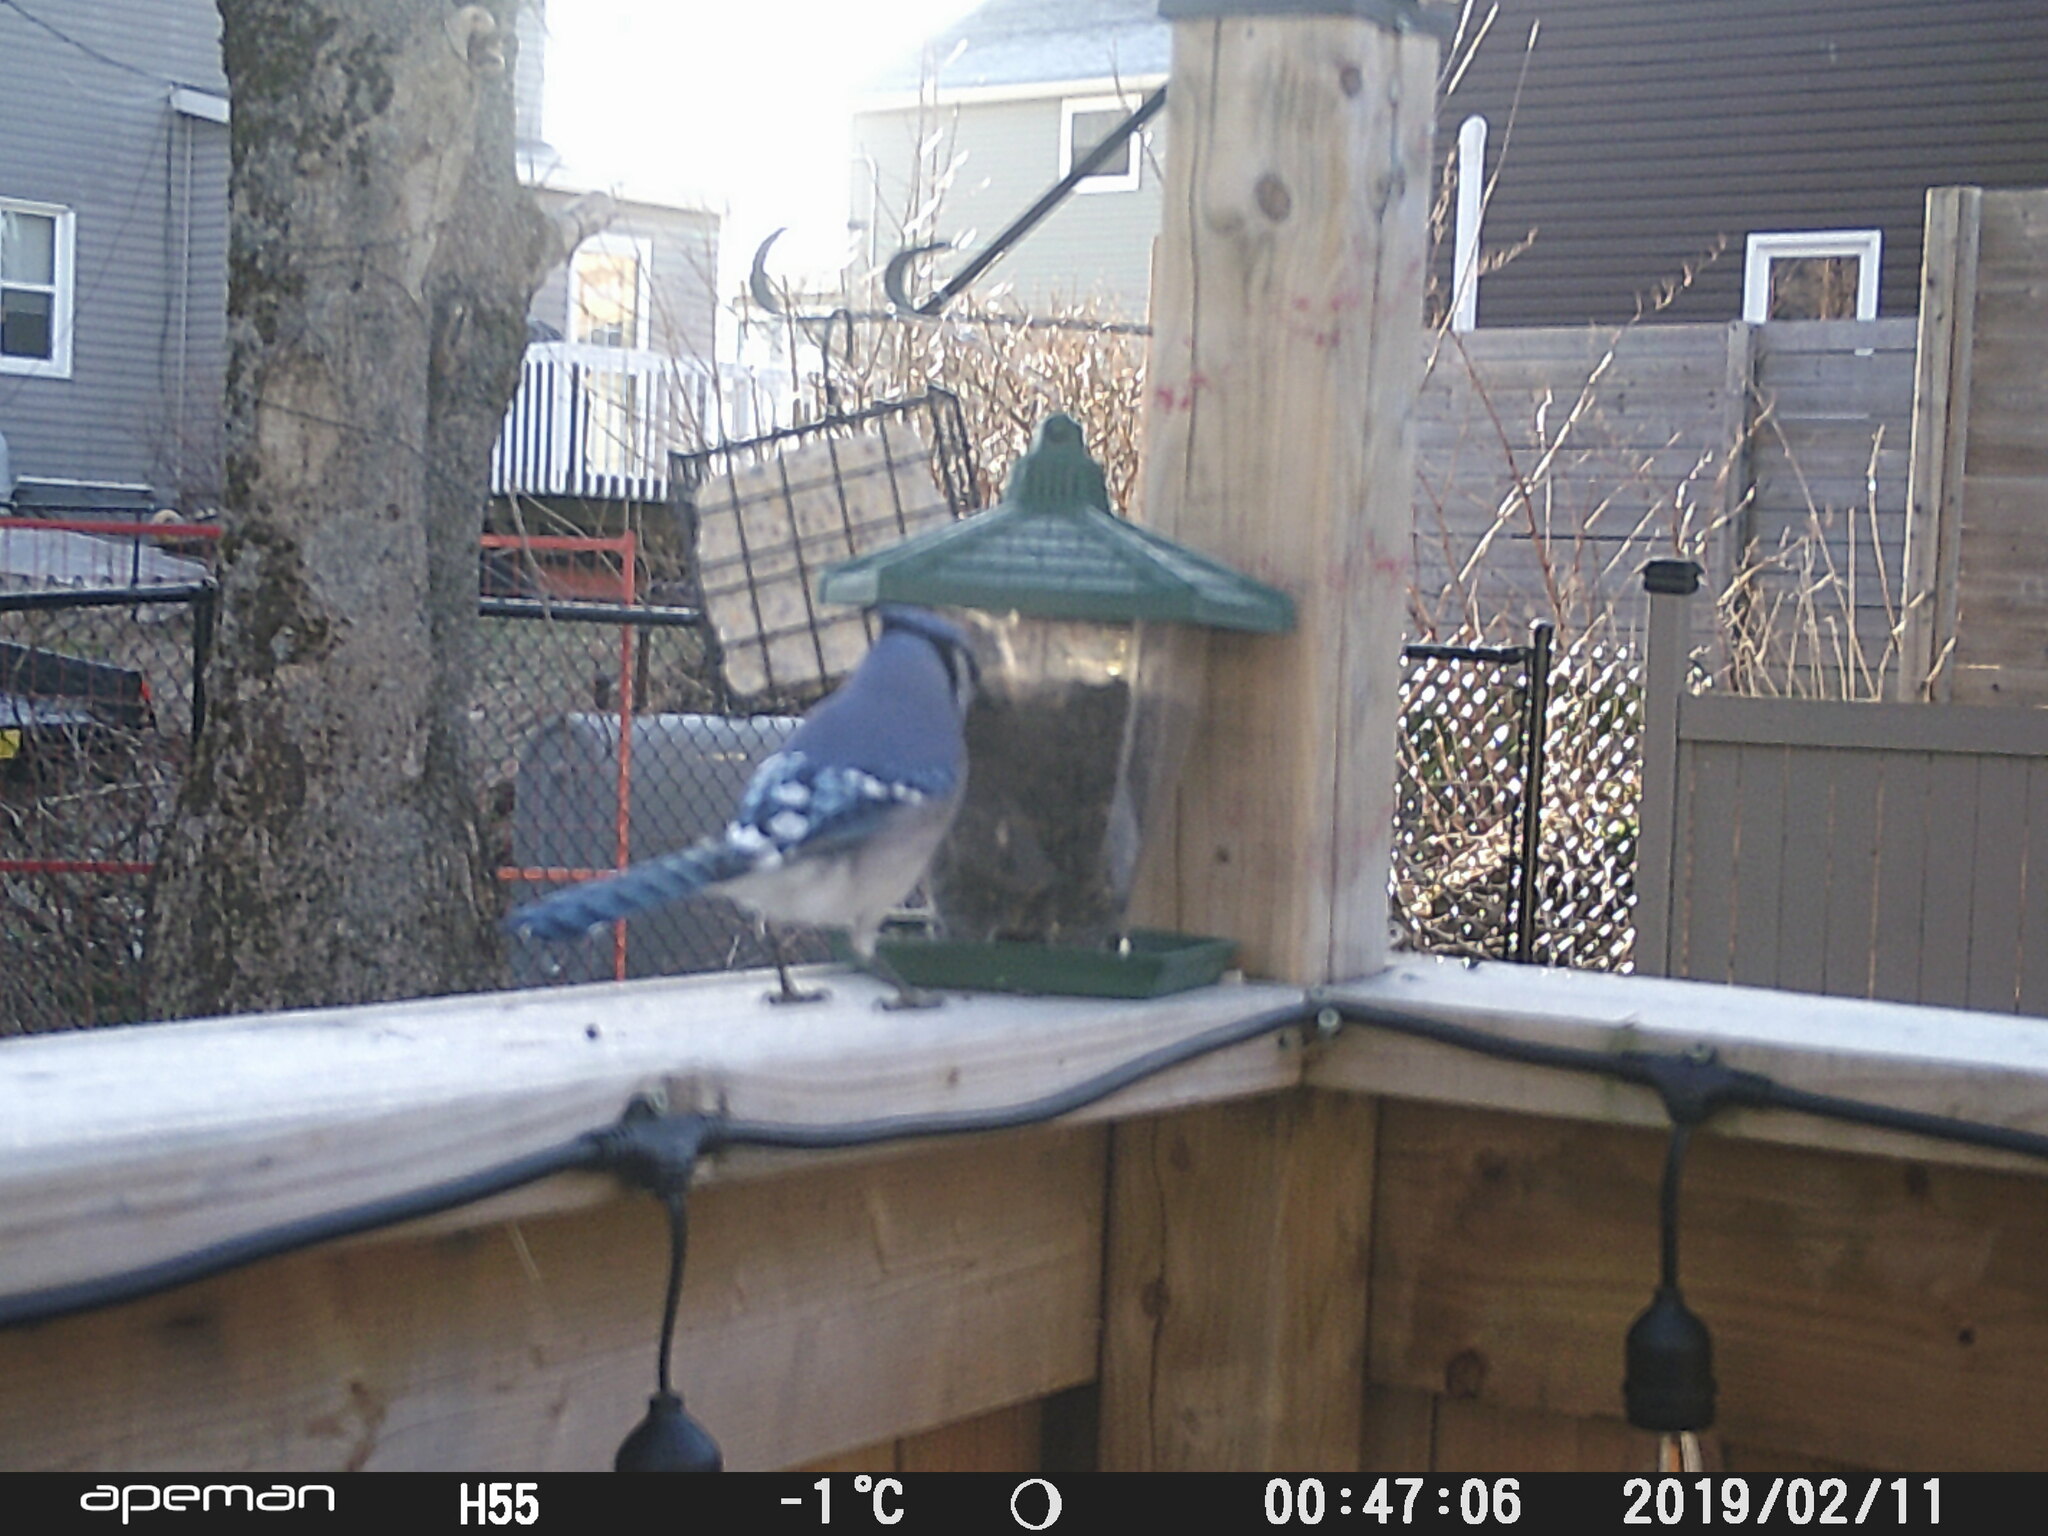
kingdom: Animalia
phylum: Chordata
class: Aves
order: Passeriformes
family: Corvidae
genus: Cyanocitta
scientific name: Cyanocitta cristata
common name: Blue jay
